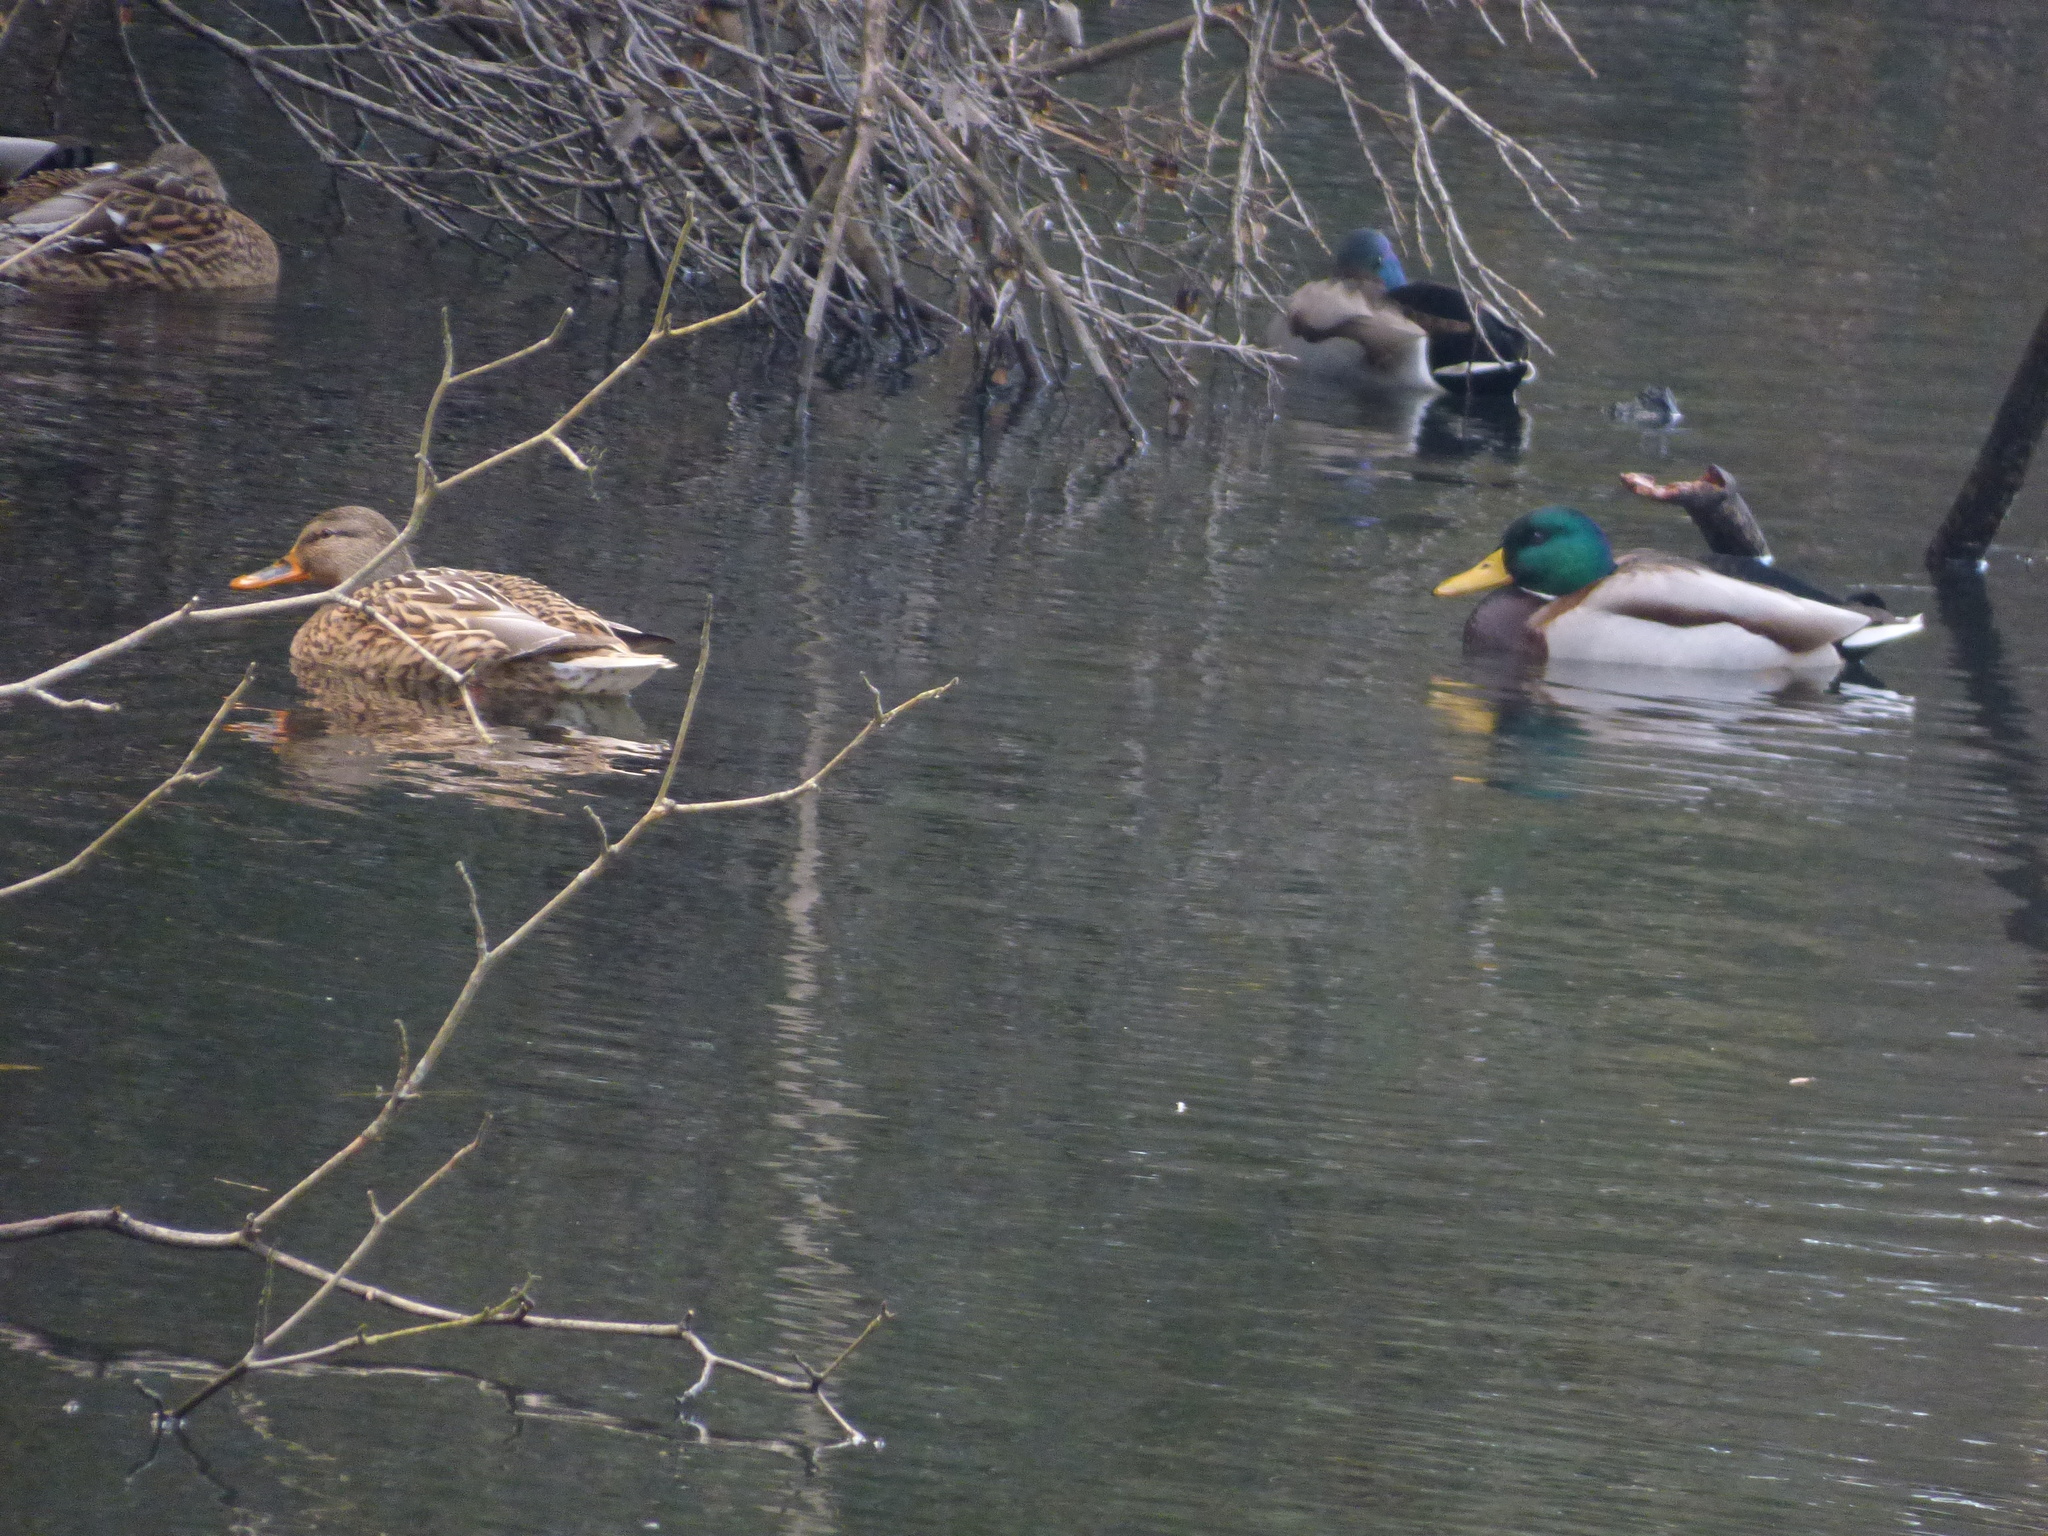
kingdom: Animalia
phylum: Chordata
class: Aves
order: Anseriformes
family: Anatidae
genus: Anas
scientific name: Anas platyrhynchos
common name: Mallard
